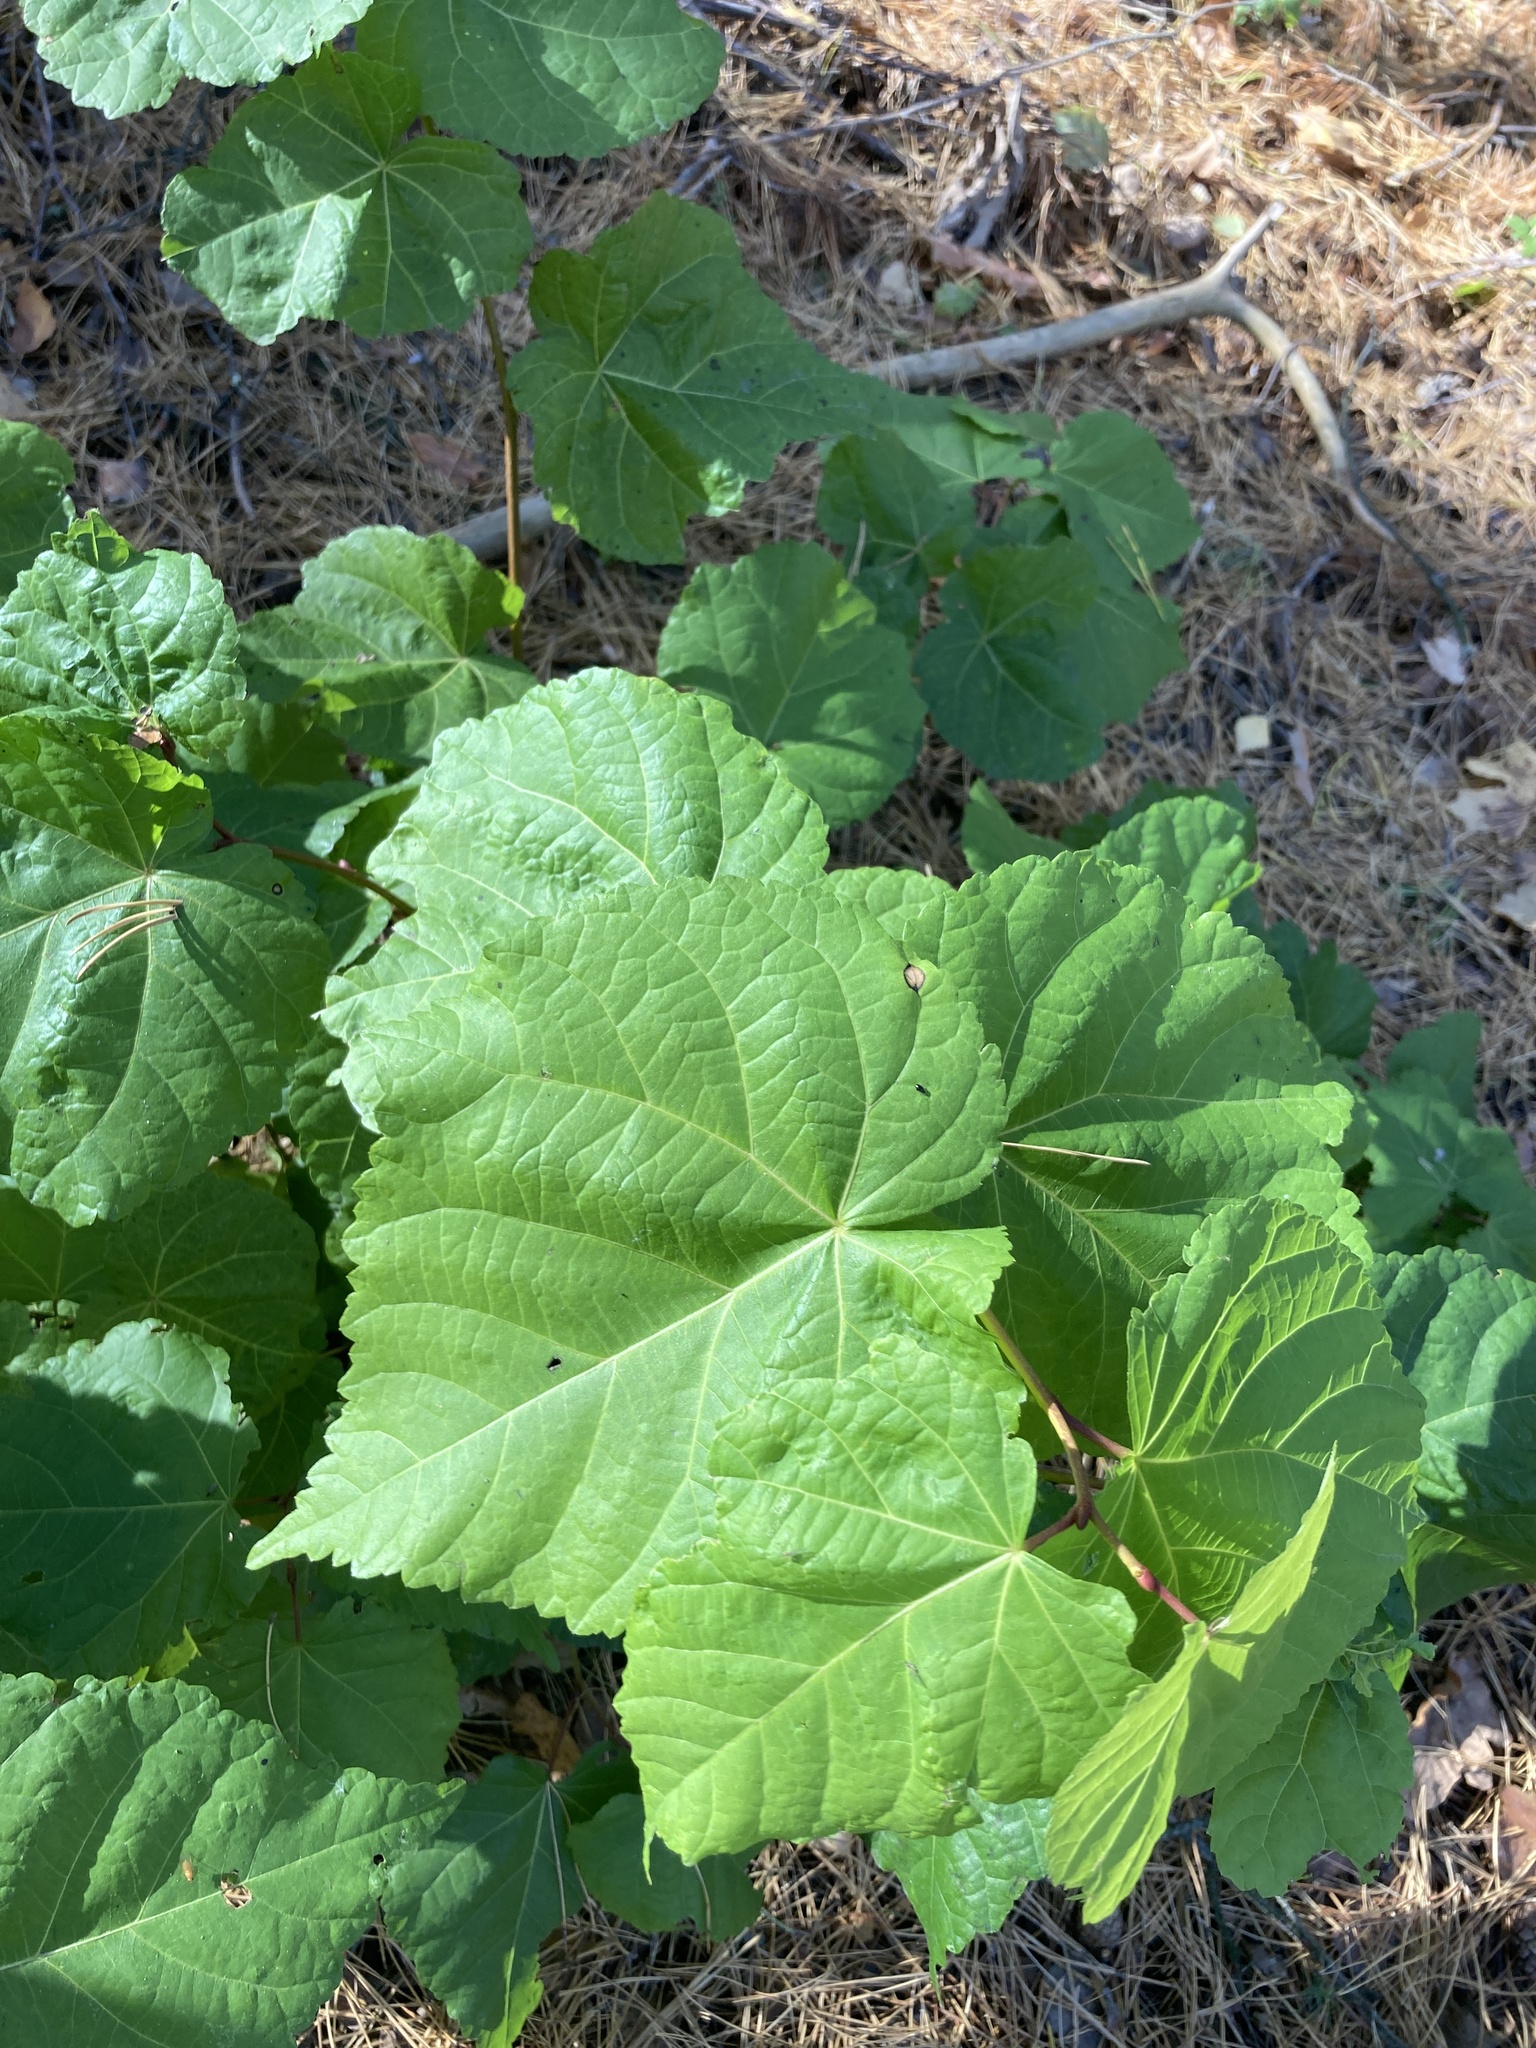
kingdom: Plantae
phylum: Tracheophyta
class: Magnoliopsida
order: Malvales
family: Malvaceae
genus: Tilia
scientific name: Tilia cordata
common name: Small-leaved lime
